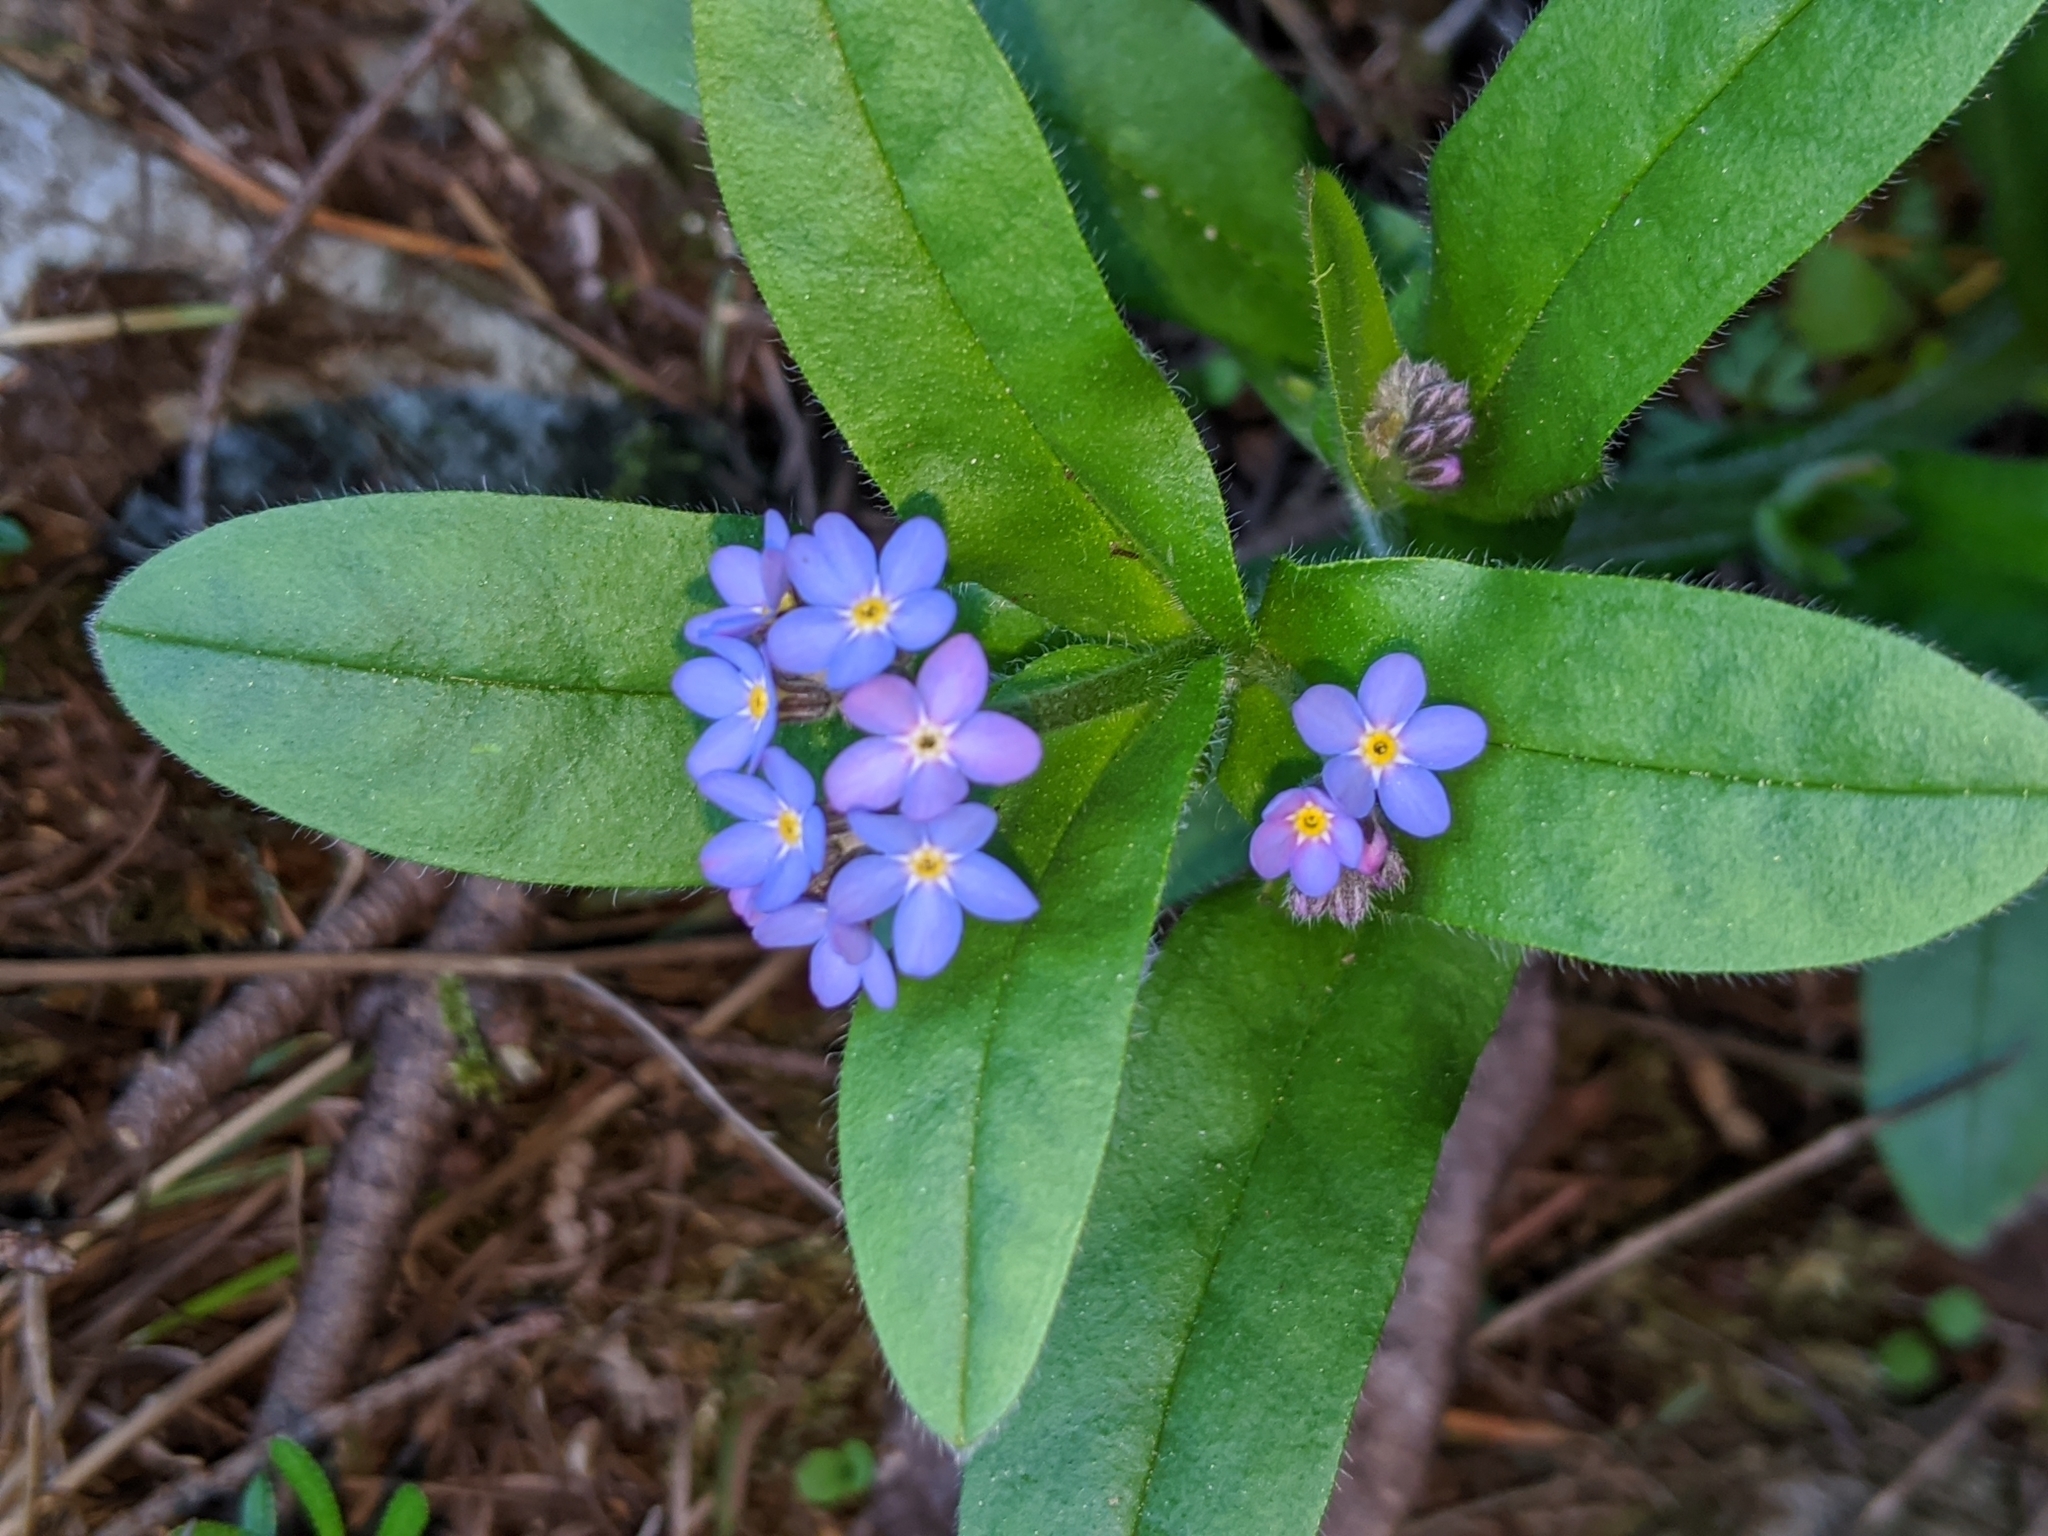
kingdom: Plantae
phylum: Tracheophyta
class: Magnoliopsida
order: Boraginales
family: Boraginaceae
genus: Myosotis
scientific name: Myosotis sylvatica
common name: Wood forget-me-not
